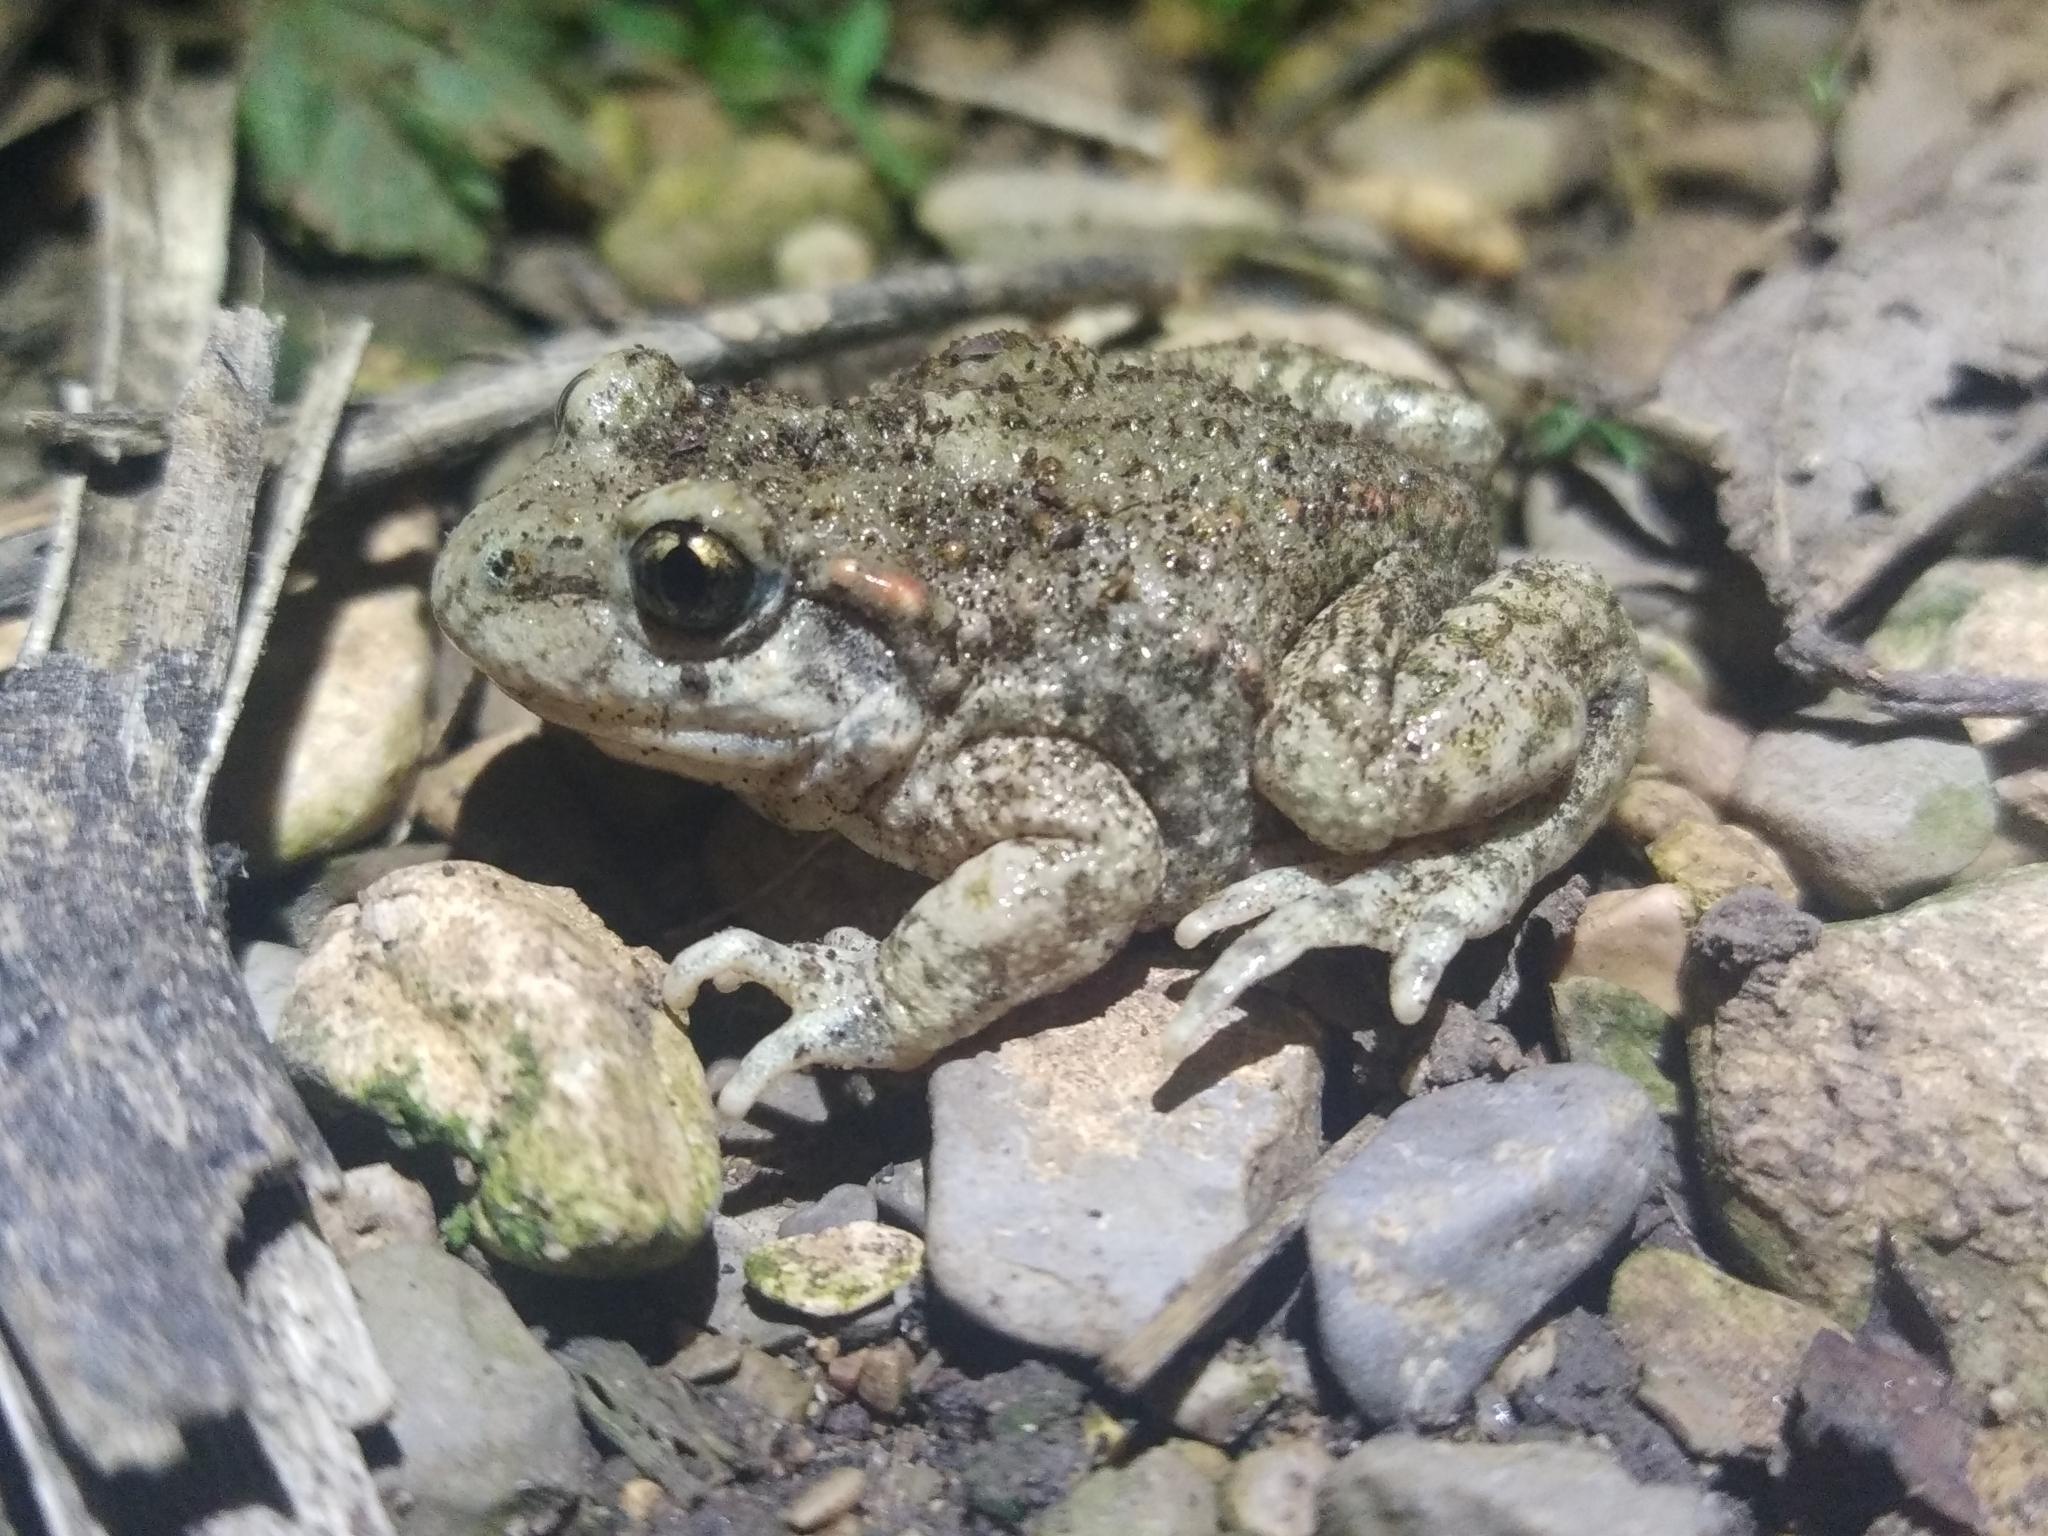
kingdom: Animalia
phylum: Chordata
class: Amphibia
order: Anura
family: Alytidae
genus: Alytes
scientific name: Alytes obstetricans
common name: Midwife toad
